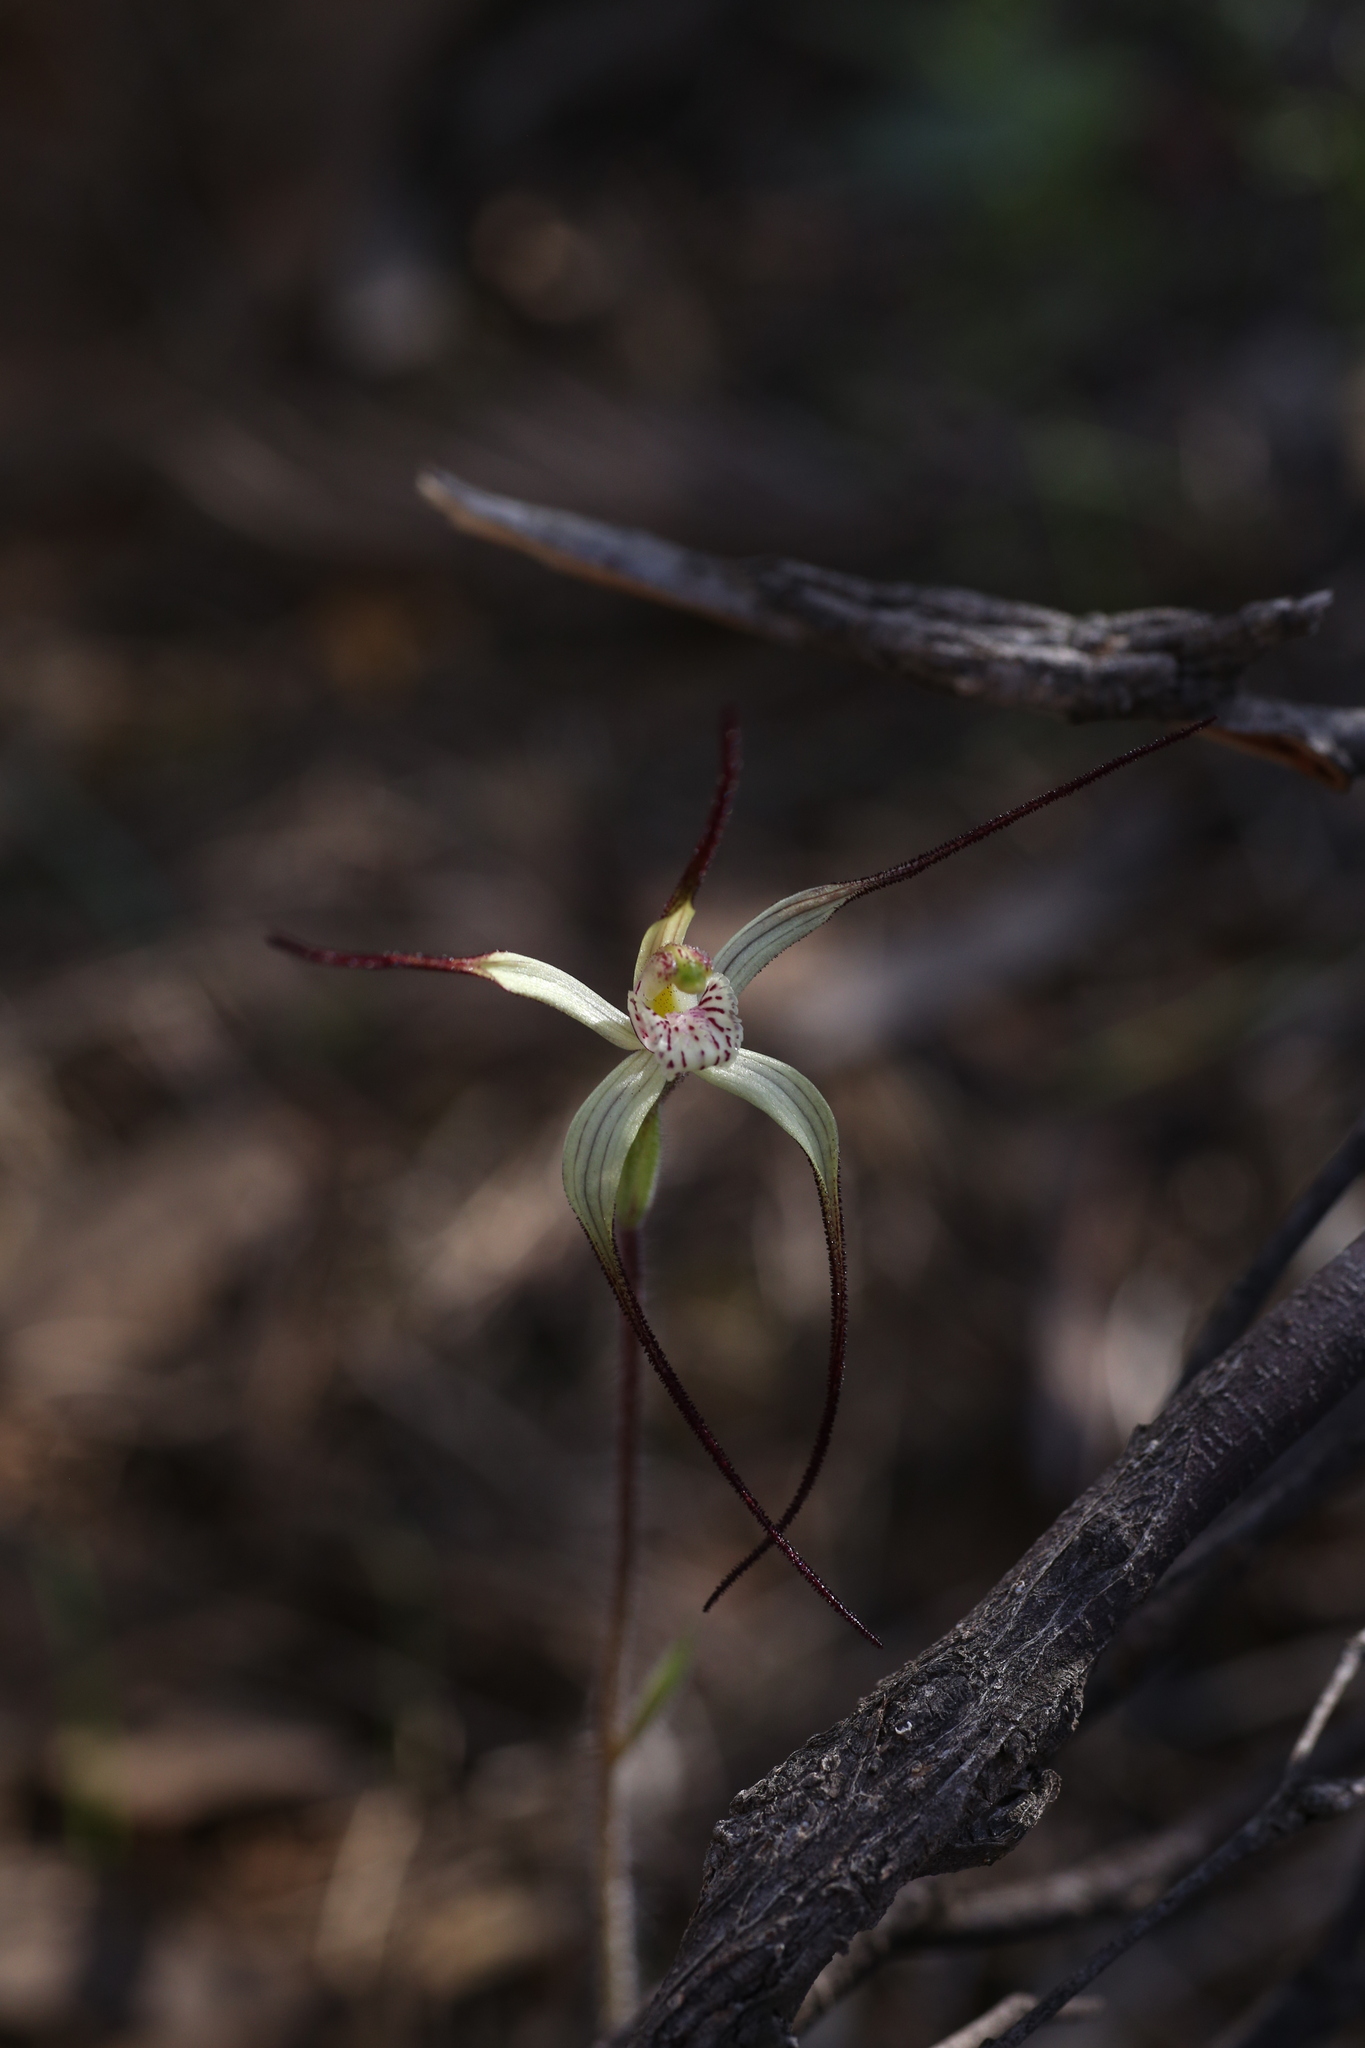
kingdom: Plantae
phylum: Tracheophyta
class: Liliopsida
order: Asparagales
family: Orchidaceae
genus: Caladenia
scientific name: Caladenia dimidia
